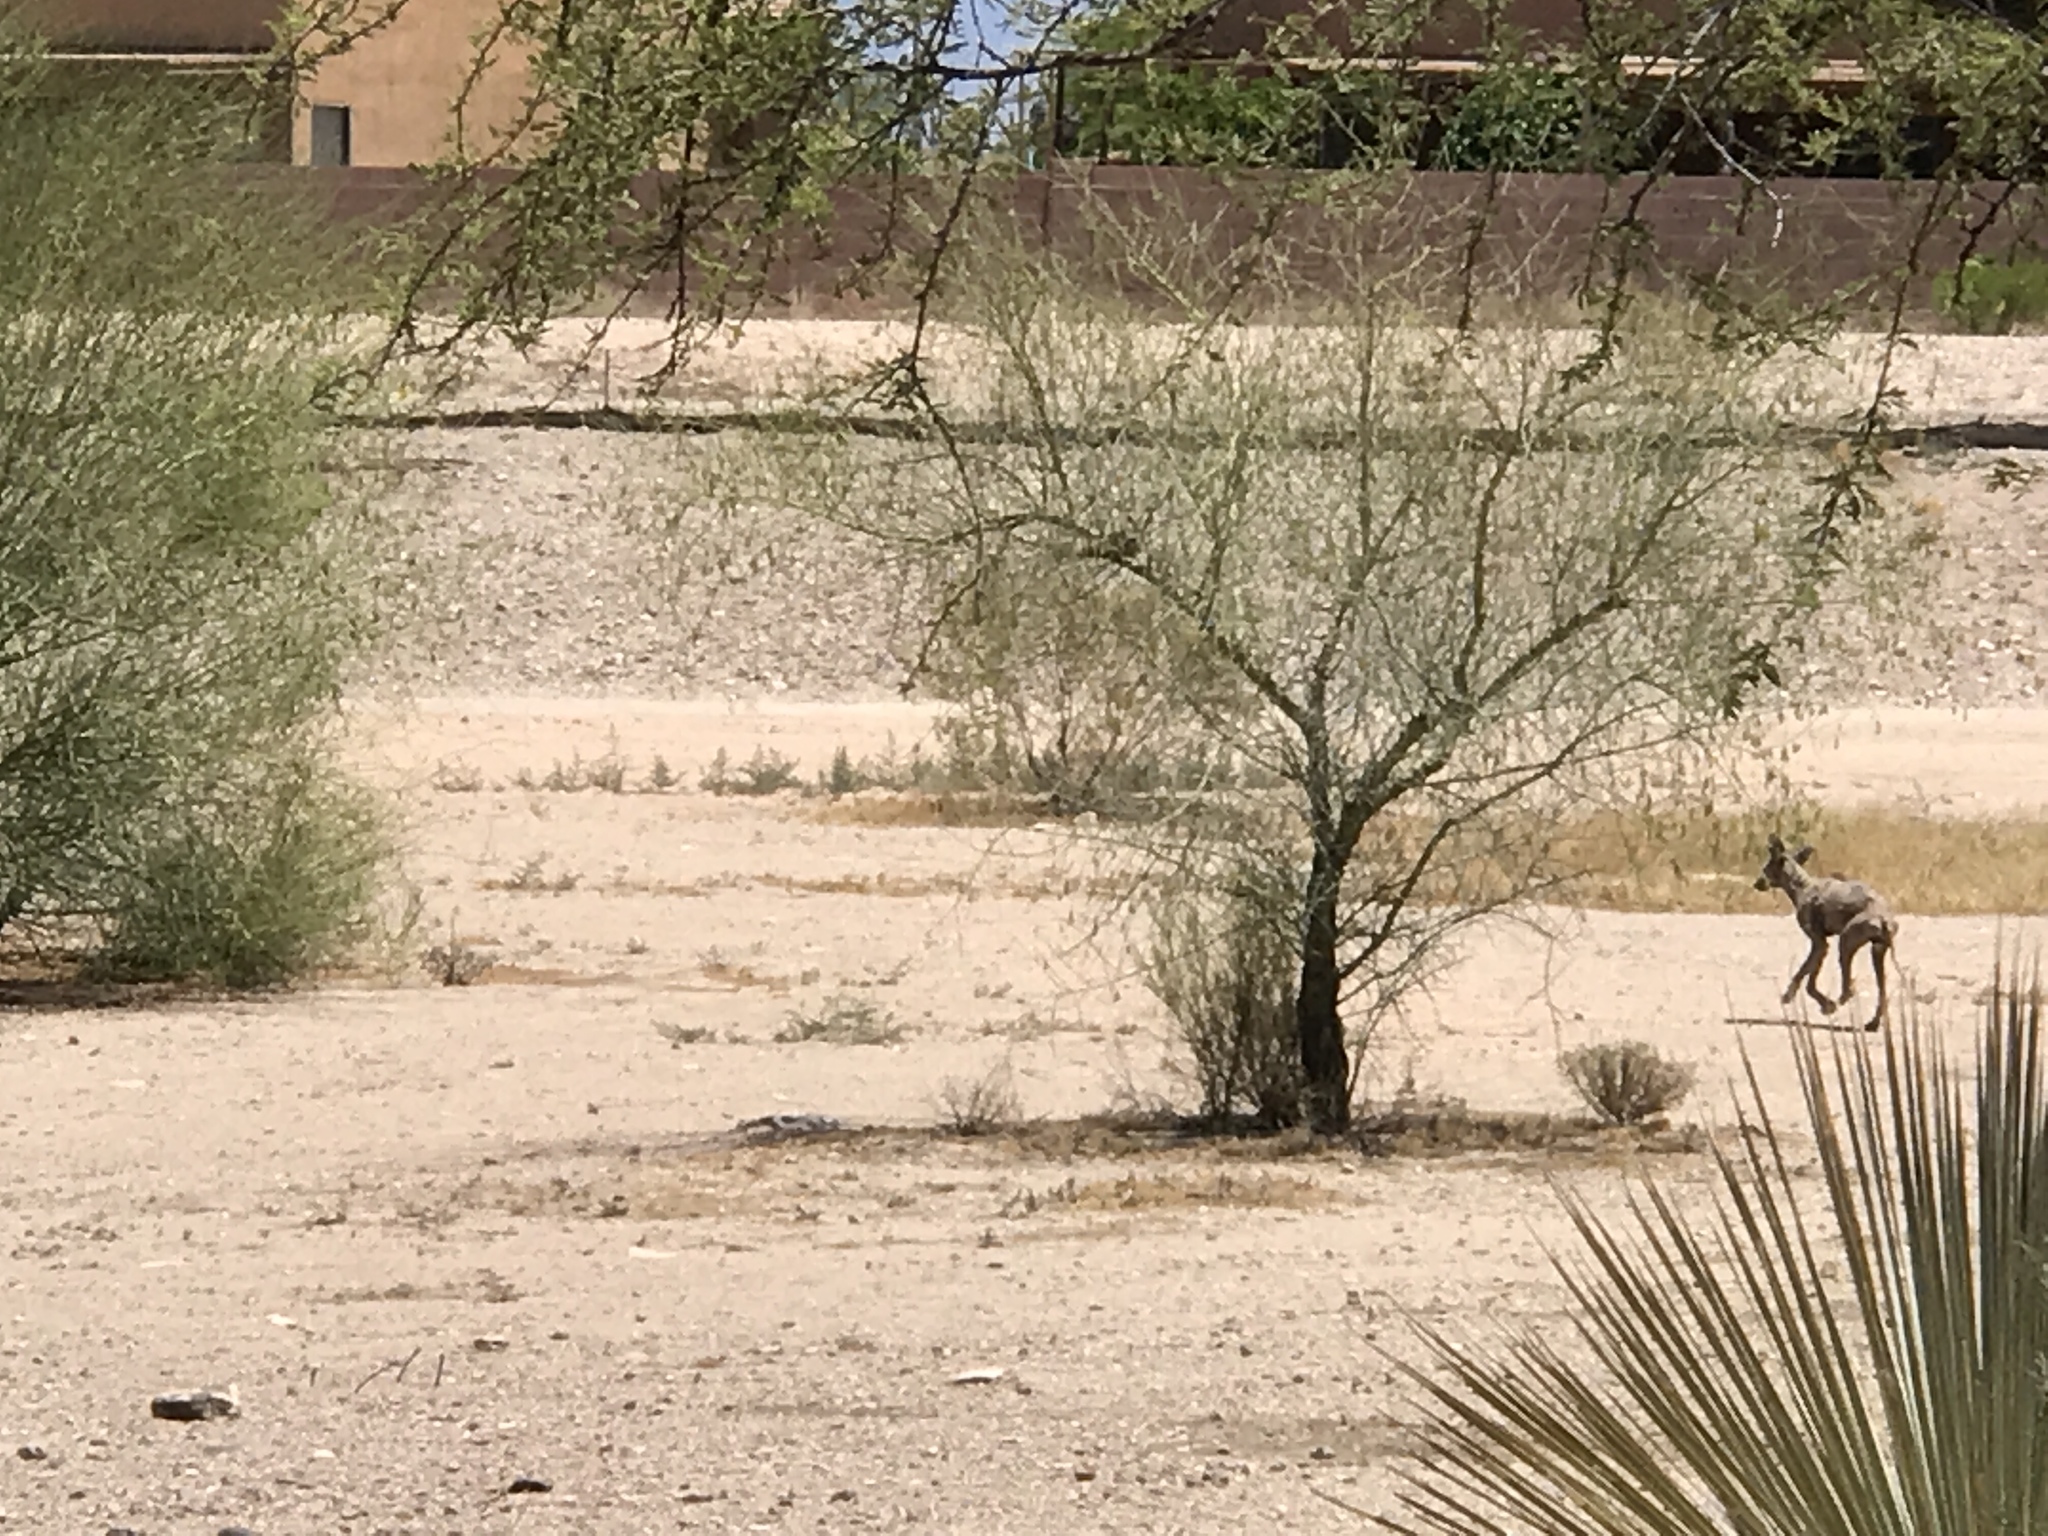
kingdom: Animalia
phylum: Chordata
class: Mammalia
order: Carnivora
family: Canidae
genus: Canis
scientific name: Canis latrans
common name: Coyote
